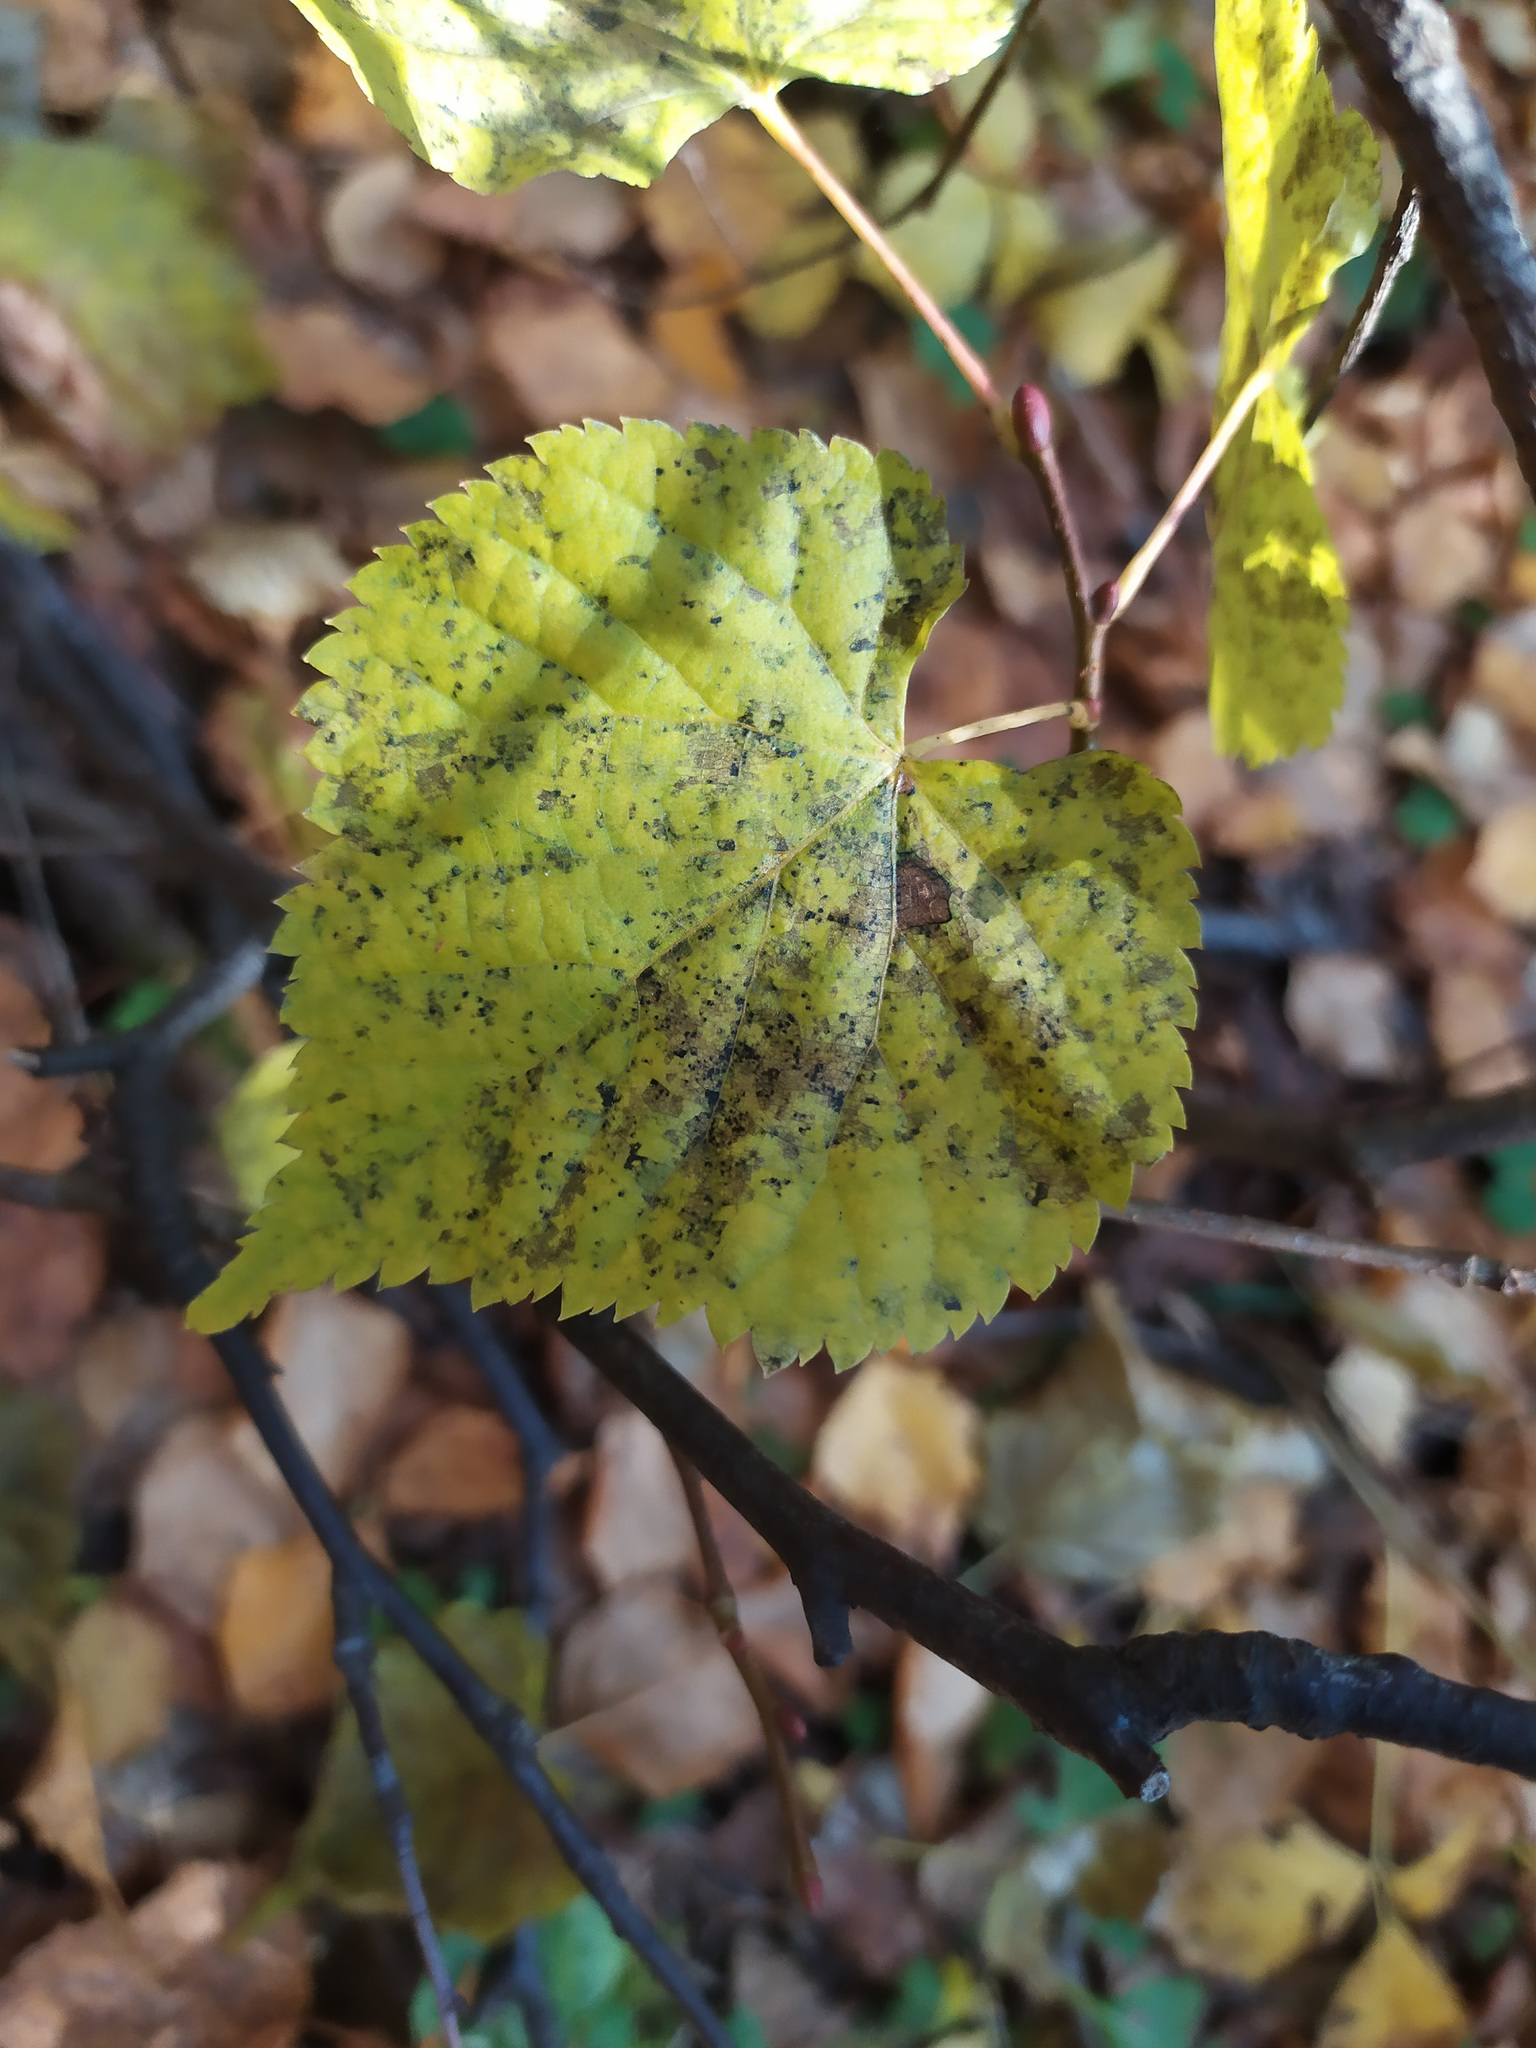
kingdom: Plantae
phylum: Tracheophyta
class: Magnoliopsida
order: Malvales
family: Malvaceae
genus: Tilia
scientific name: Tilia cordata
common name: Small-leaved lime
